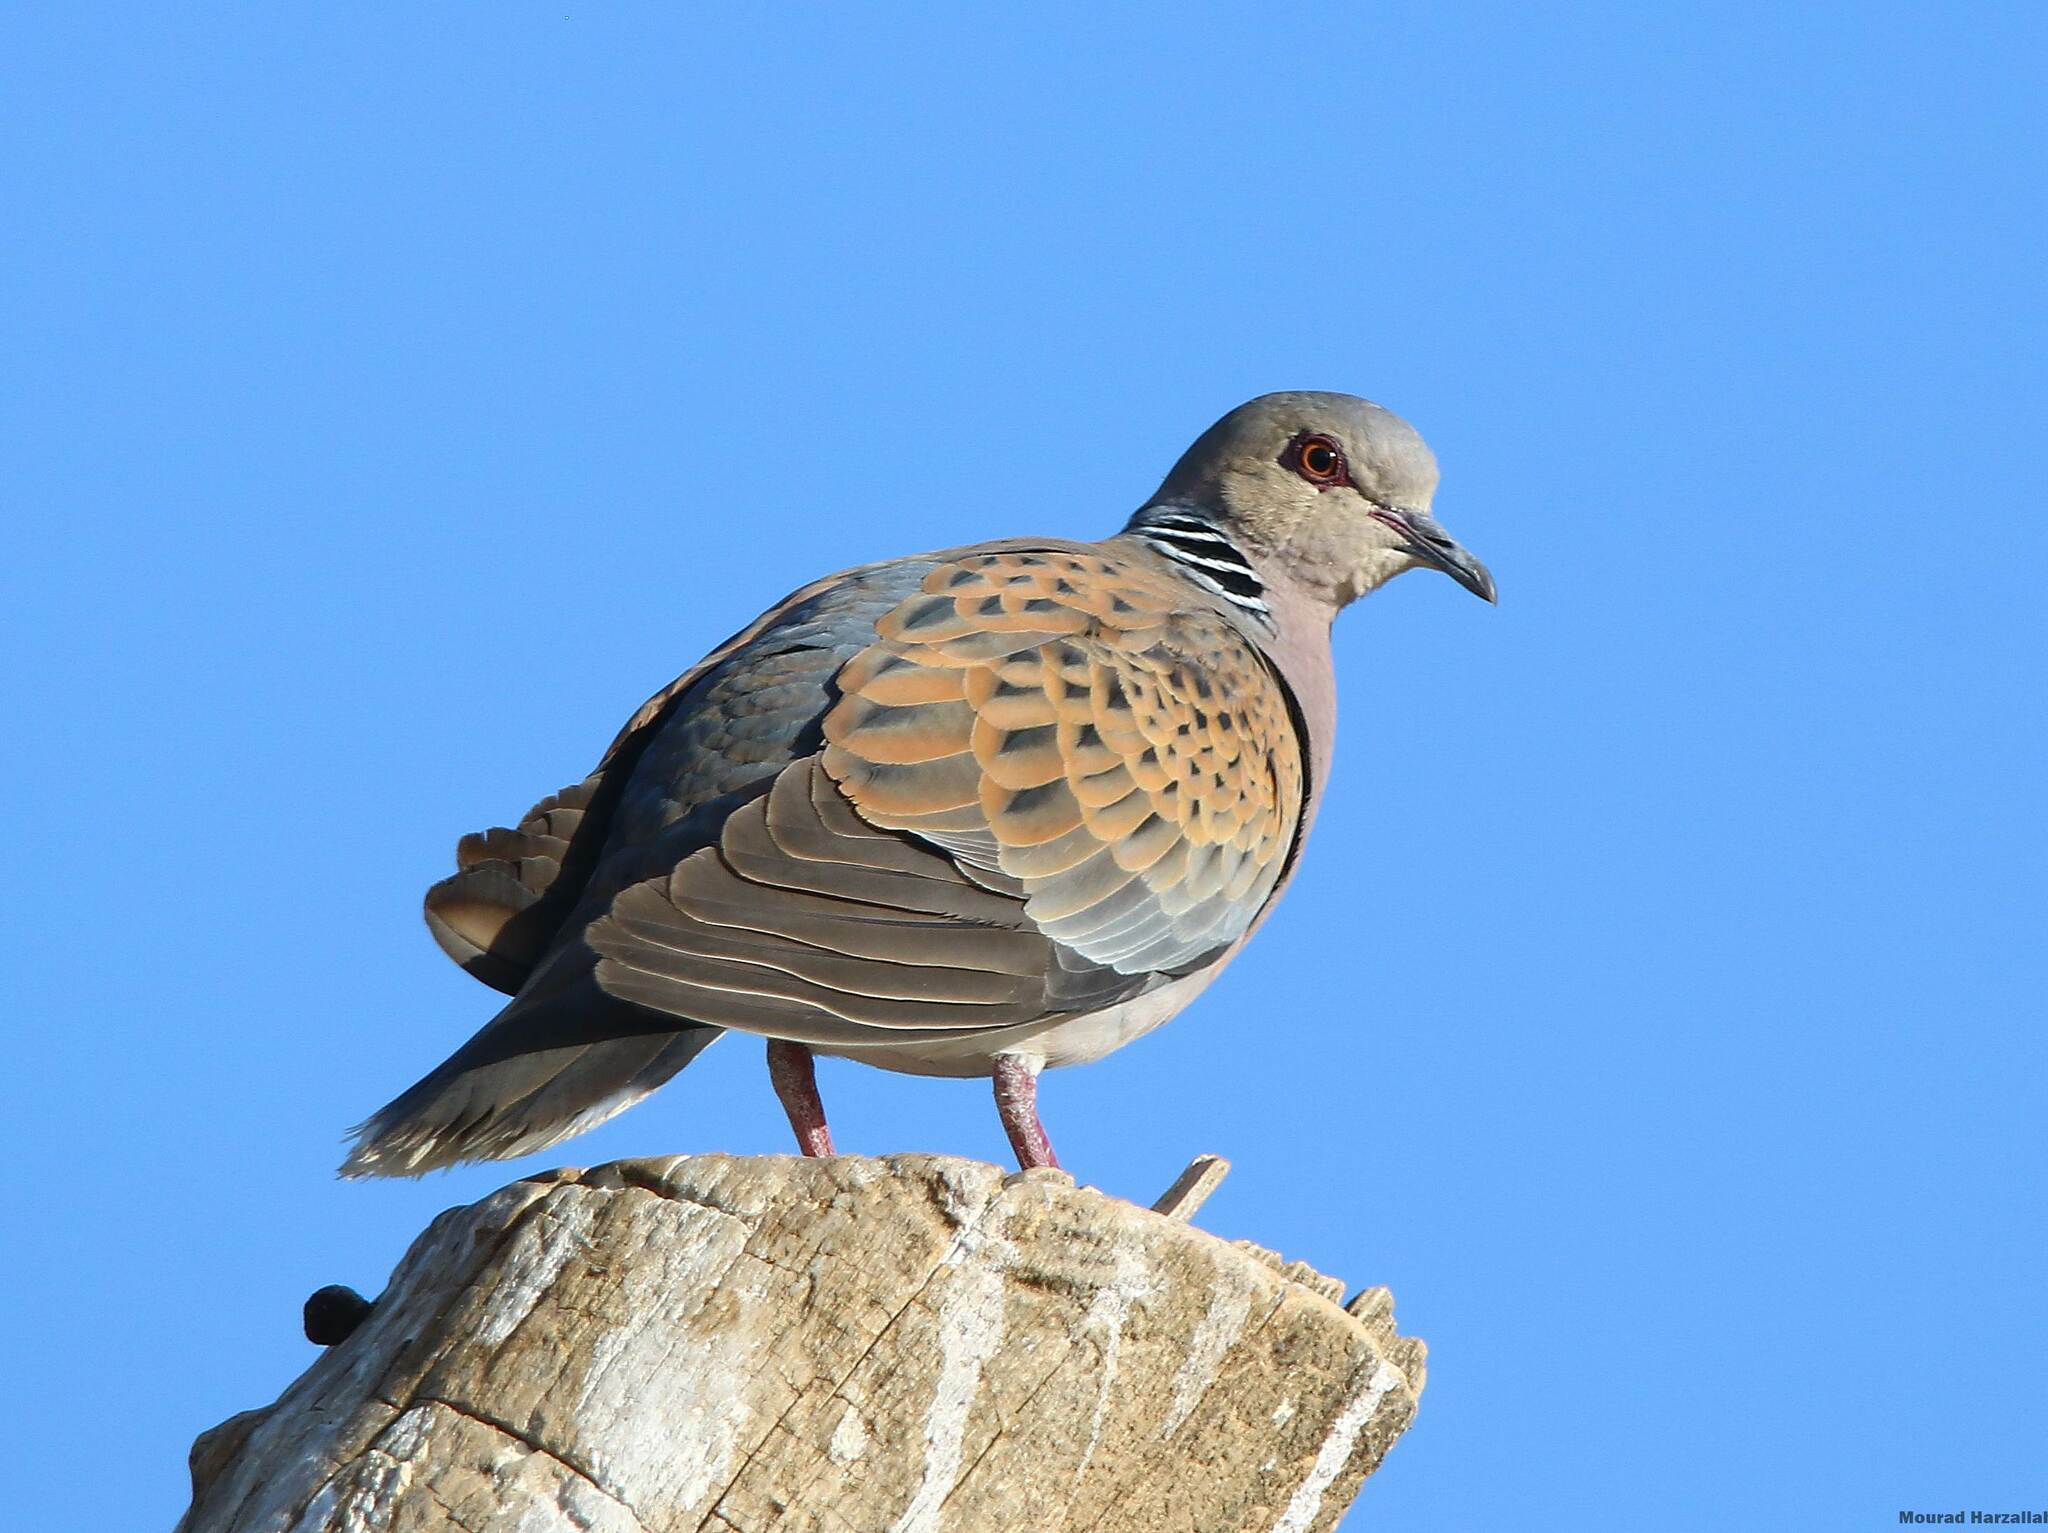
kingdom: Animalia
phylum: Chordata
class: Aves
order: Columbiformes
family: Columbidae
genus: Streptopelia
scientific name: Streptopelia turtur
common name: European turtle dove
